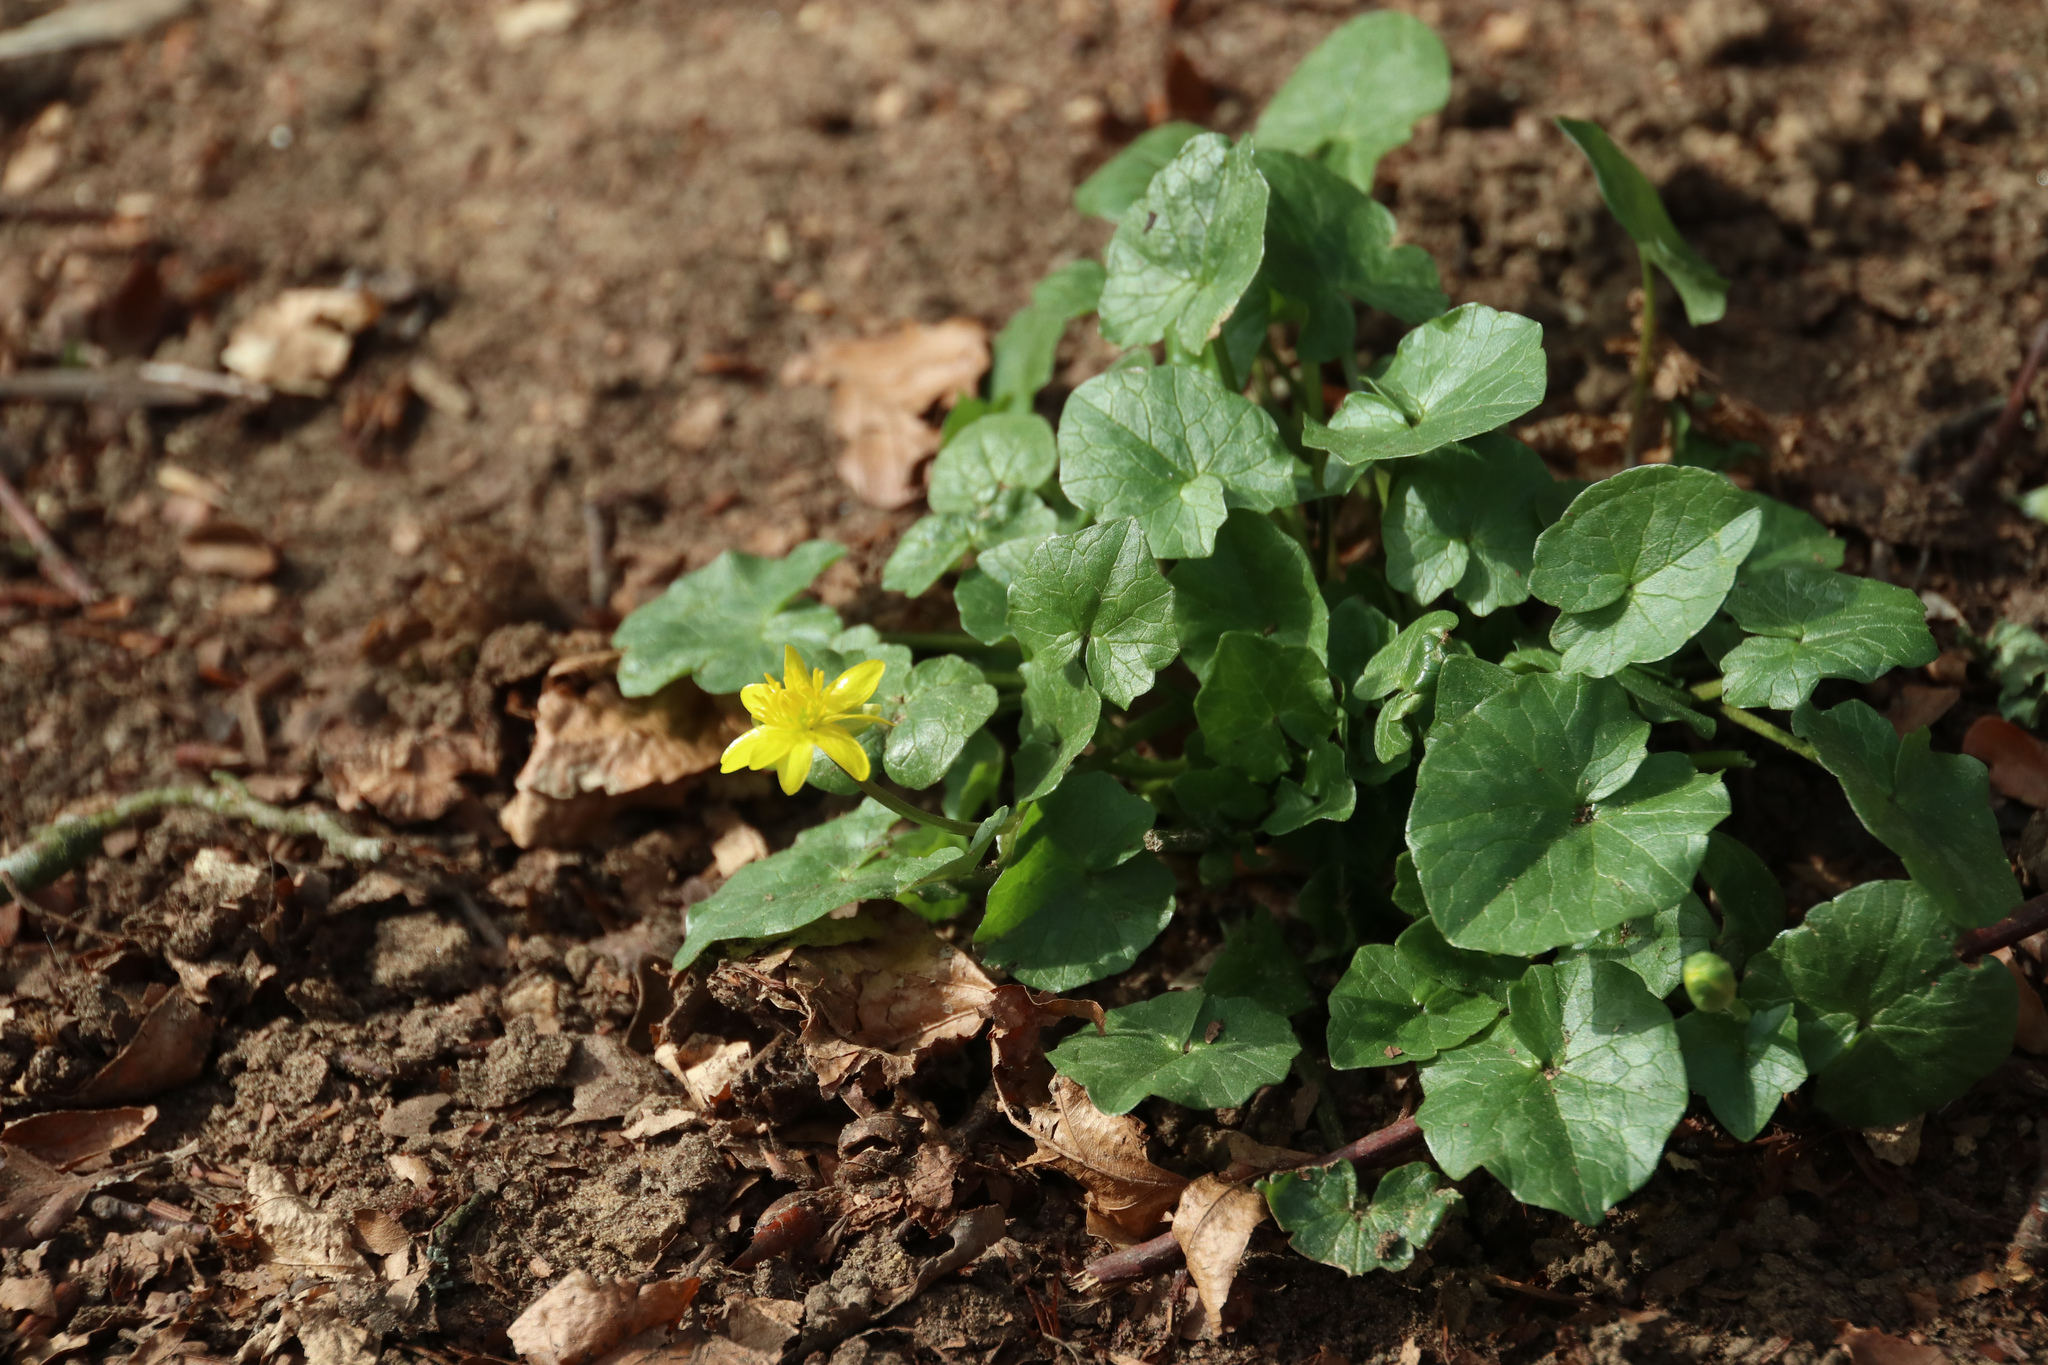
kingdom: Plantae
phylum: Tracheophyta
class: Magnoliopsida
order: Ranunculales
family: Ranunculaceae
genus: Ficaria
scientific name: Ficaria verna
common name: Lesser celandine
